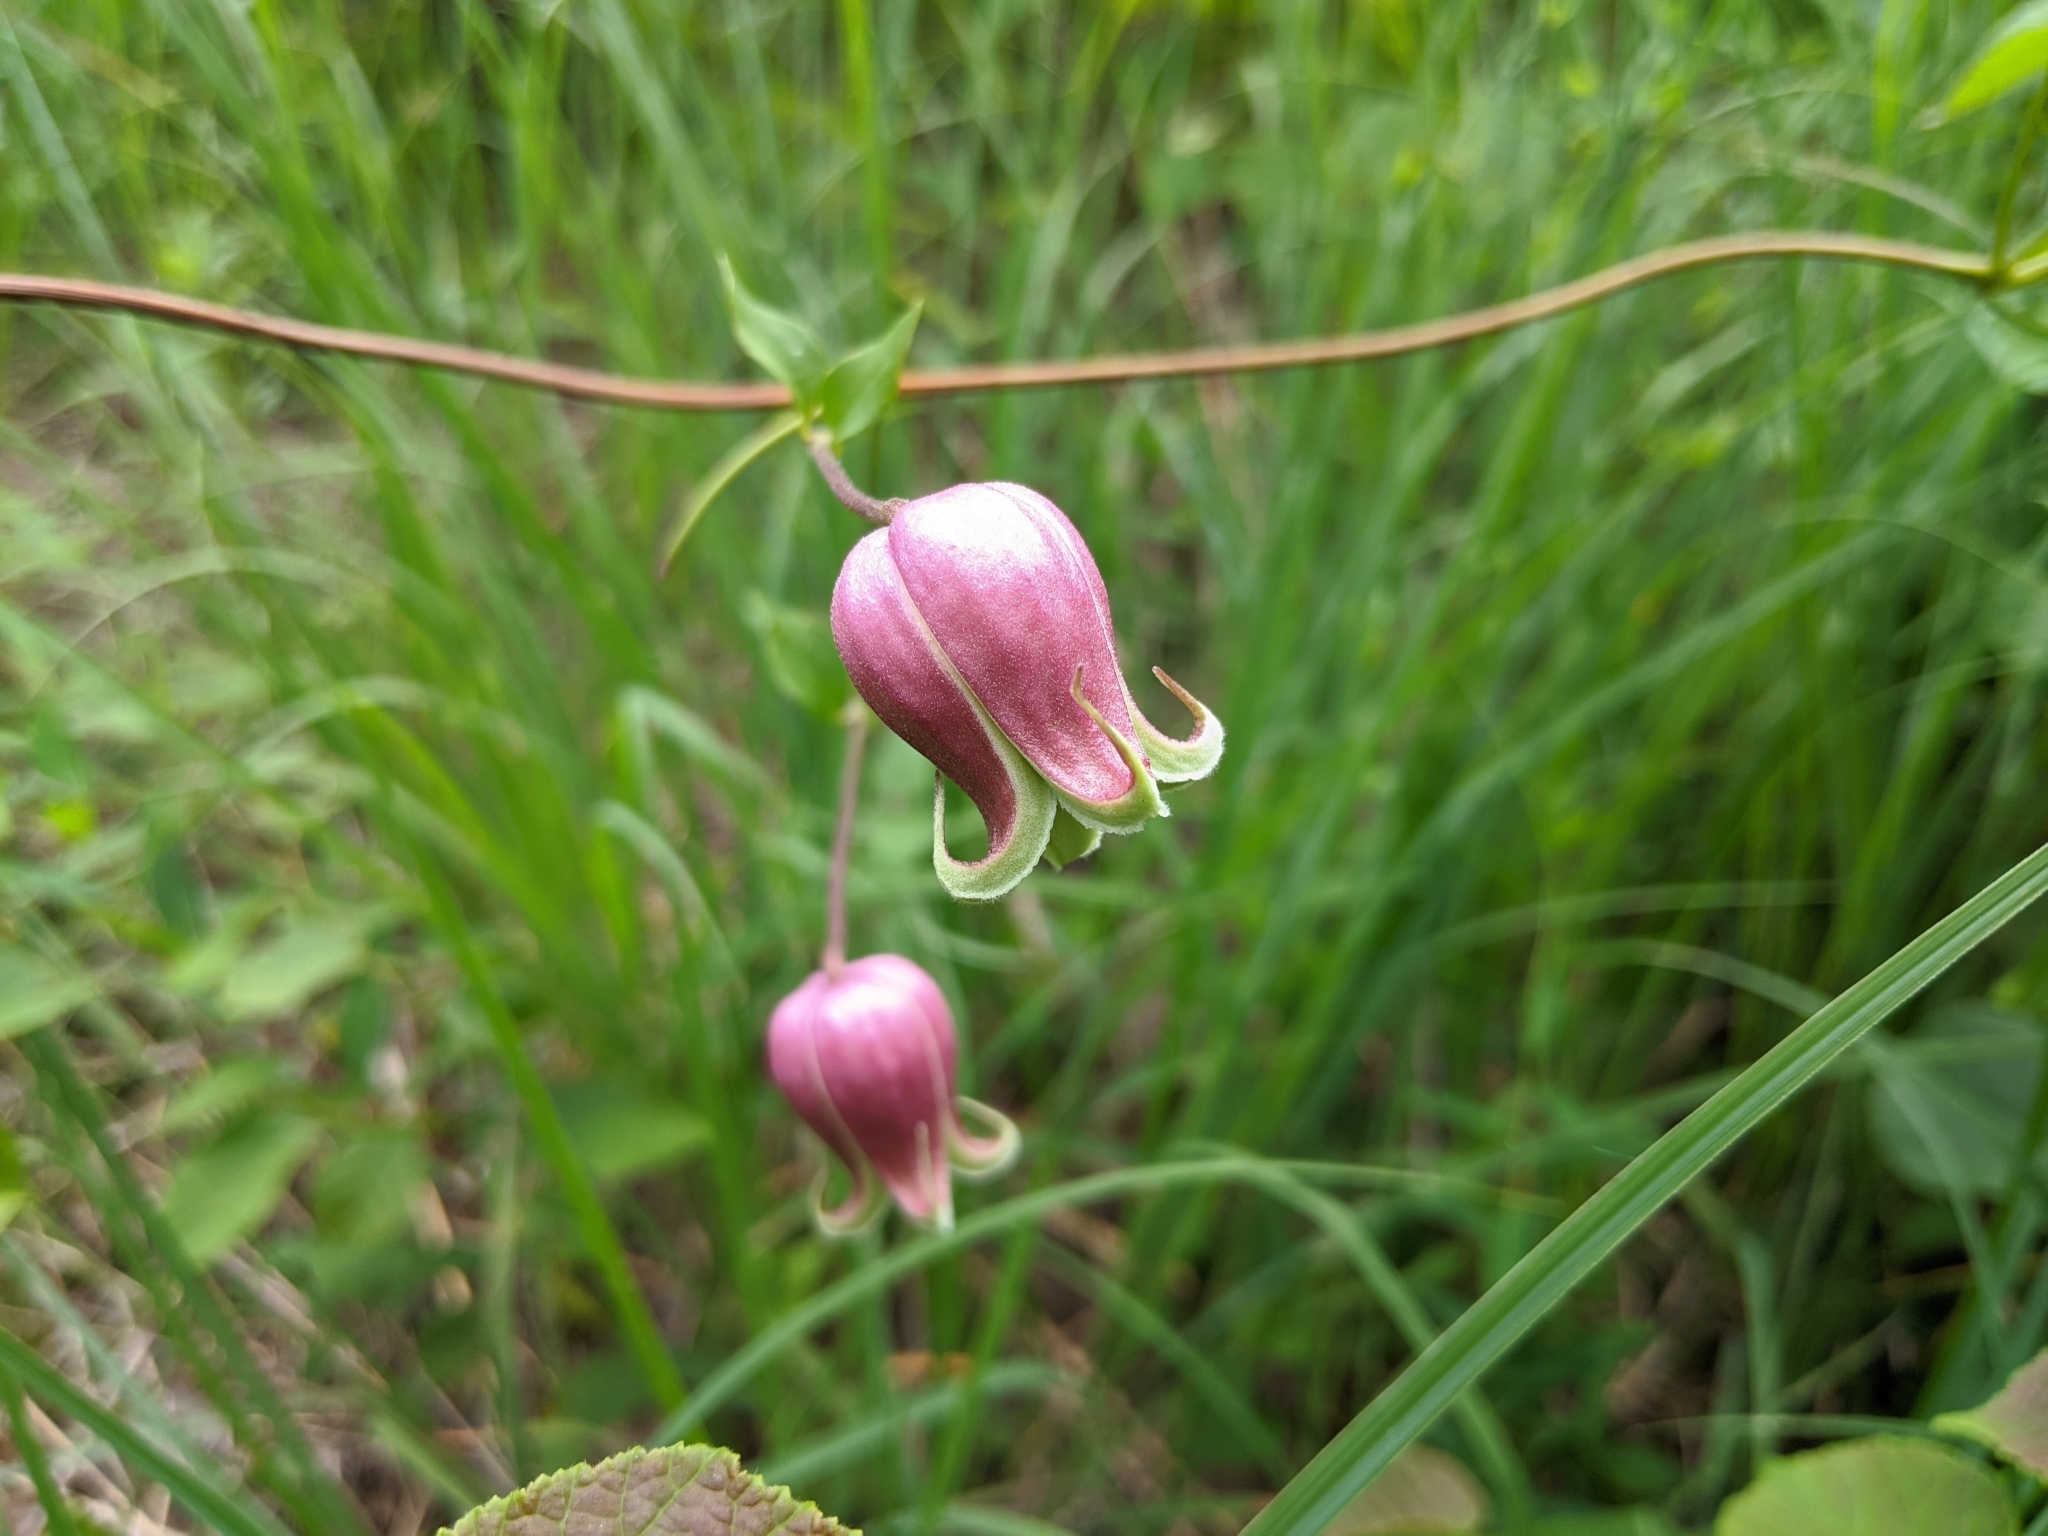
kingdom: Plantae
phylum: Tracheophyta
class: Magnoliopsida
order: Ranunculales
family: Ranunculaceae
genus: Clematis
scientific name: Clematis viorna
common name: Leather-flower
